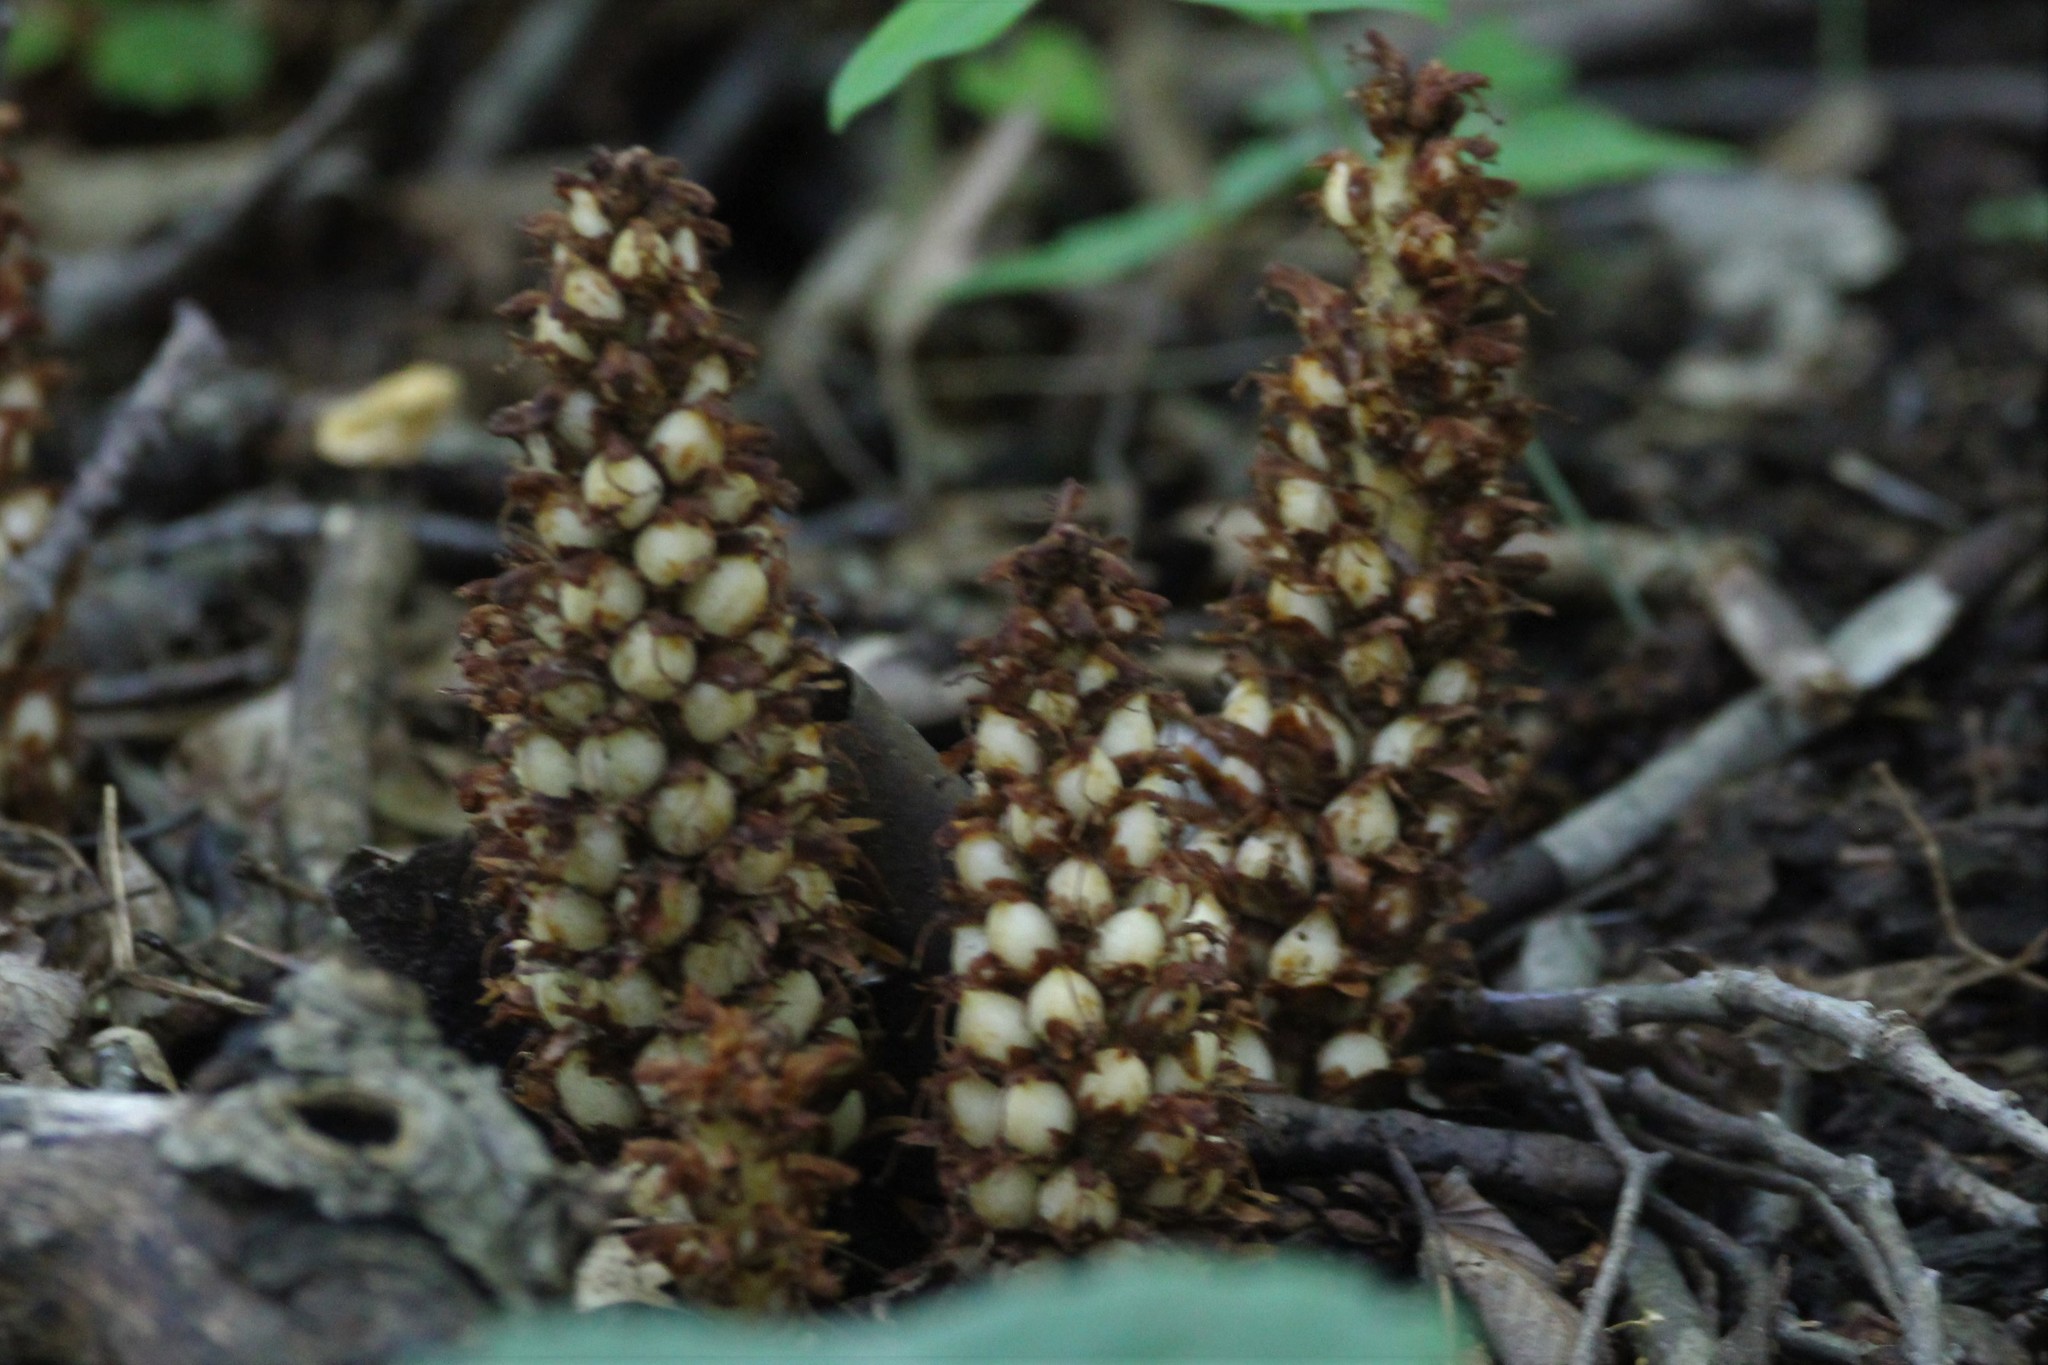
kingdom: Plantae
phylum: Tracheophyta
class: Magnoliopsida
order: Lamiales
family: Orobanchaceae
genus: Conopholis
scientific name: Conopholis americana
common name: American cancer-root
